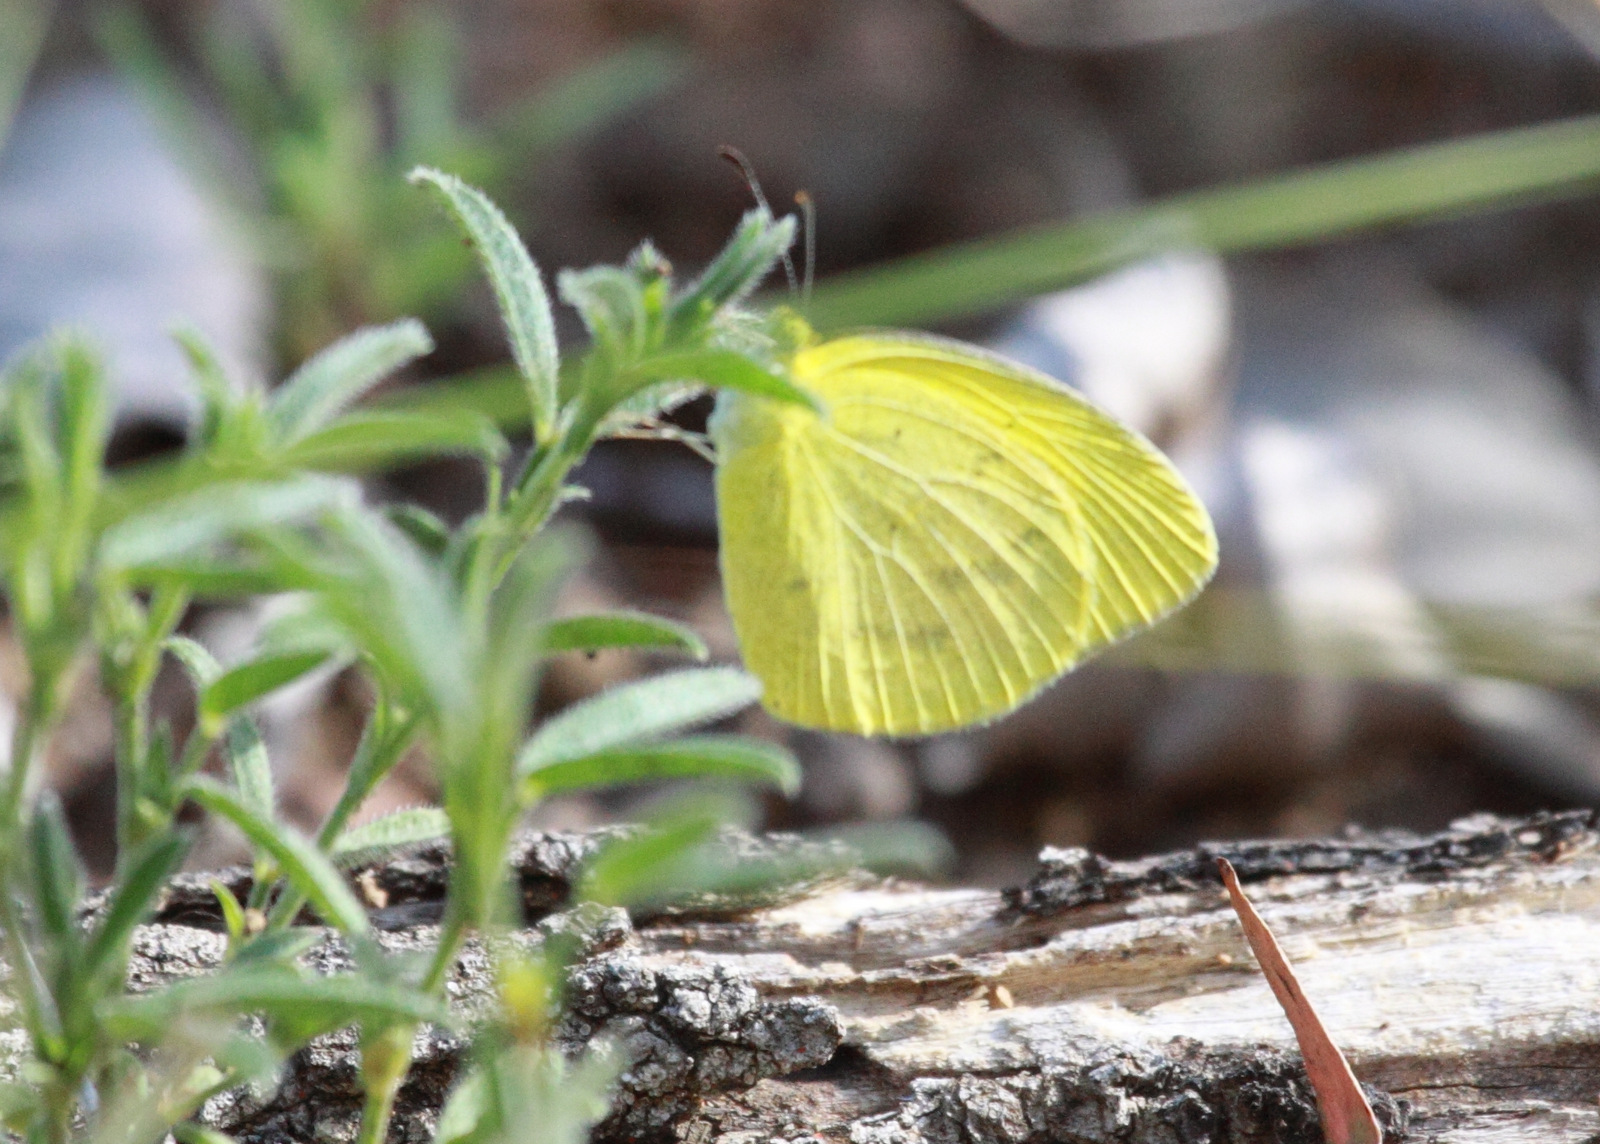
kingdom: Animalia
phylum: Arthropoda
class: Insecta
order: Lepidoptera
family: Pieridae
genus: Eurema
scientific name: Eurema
